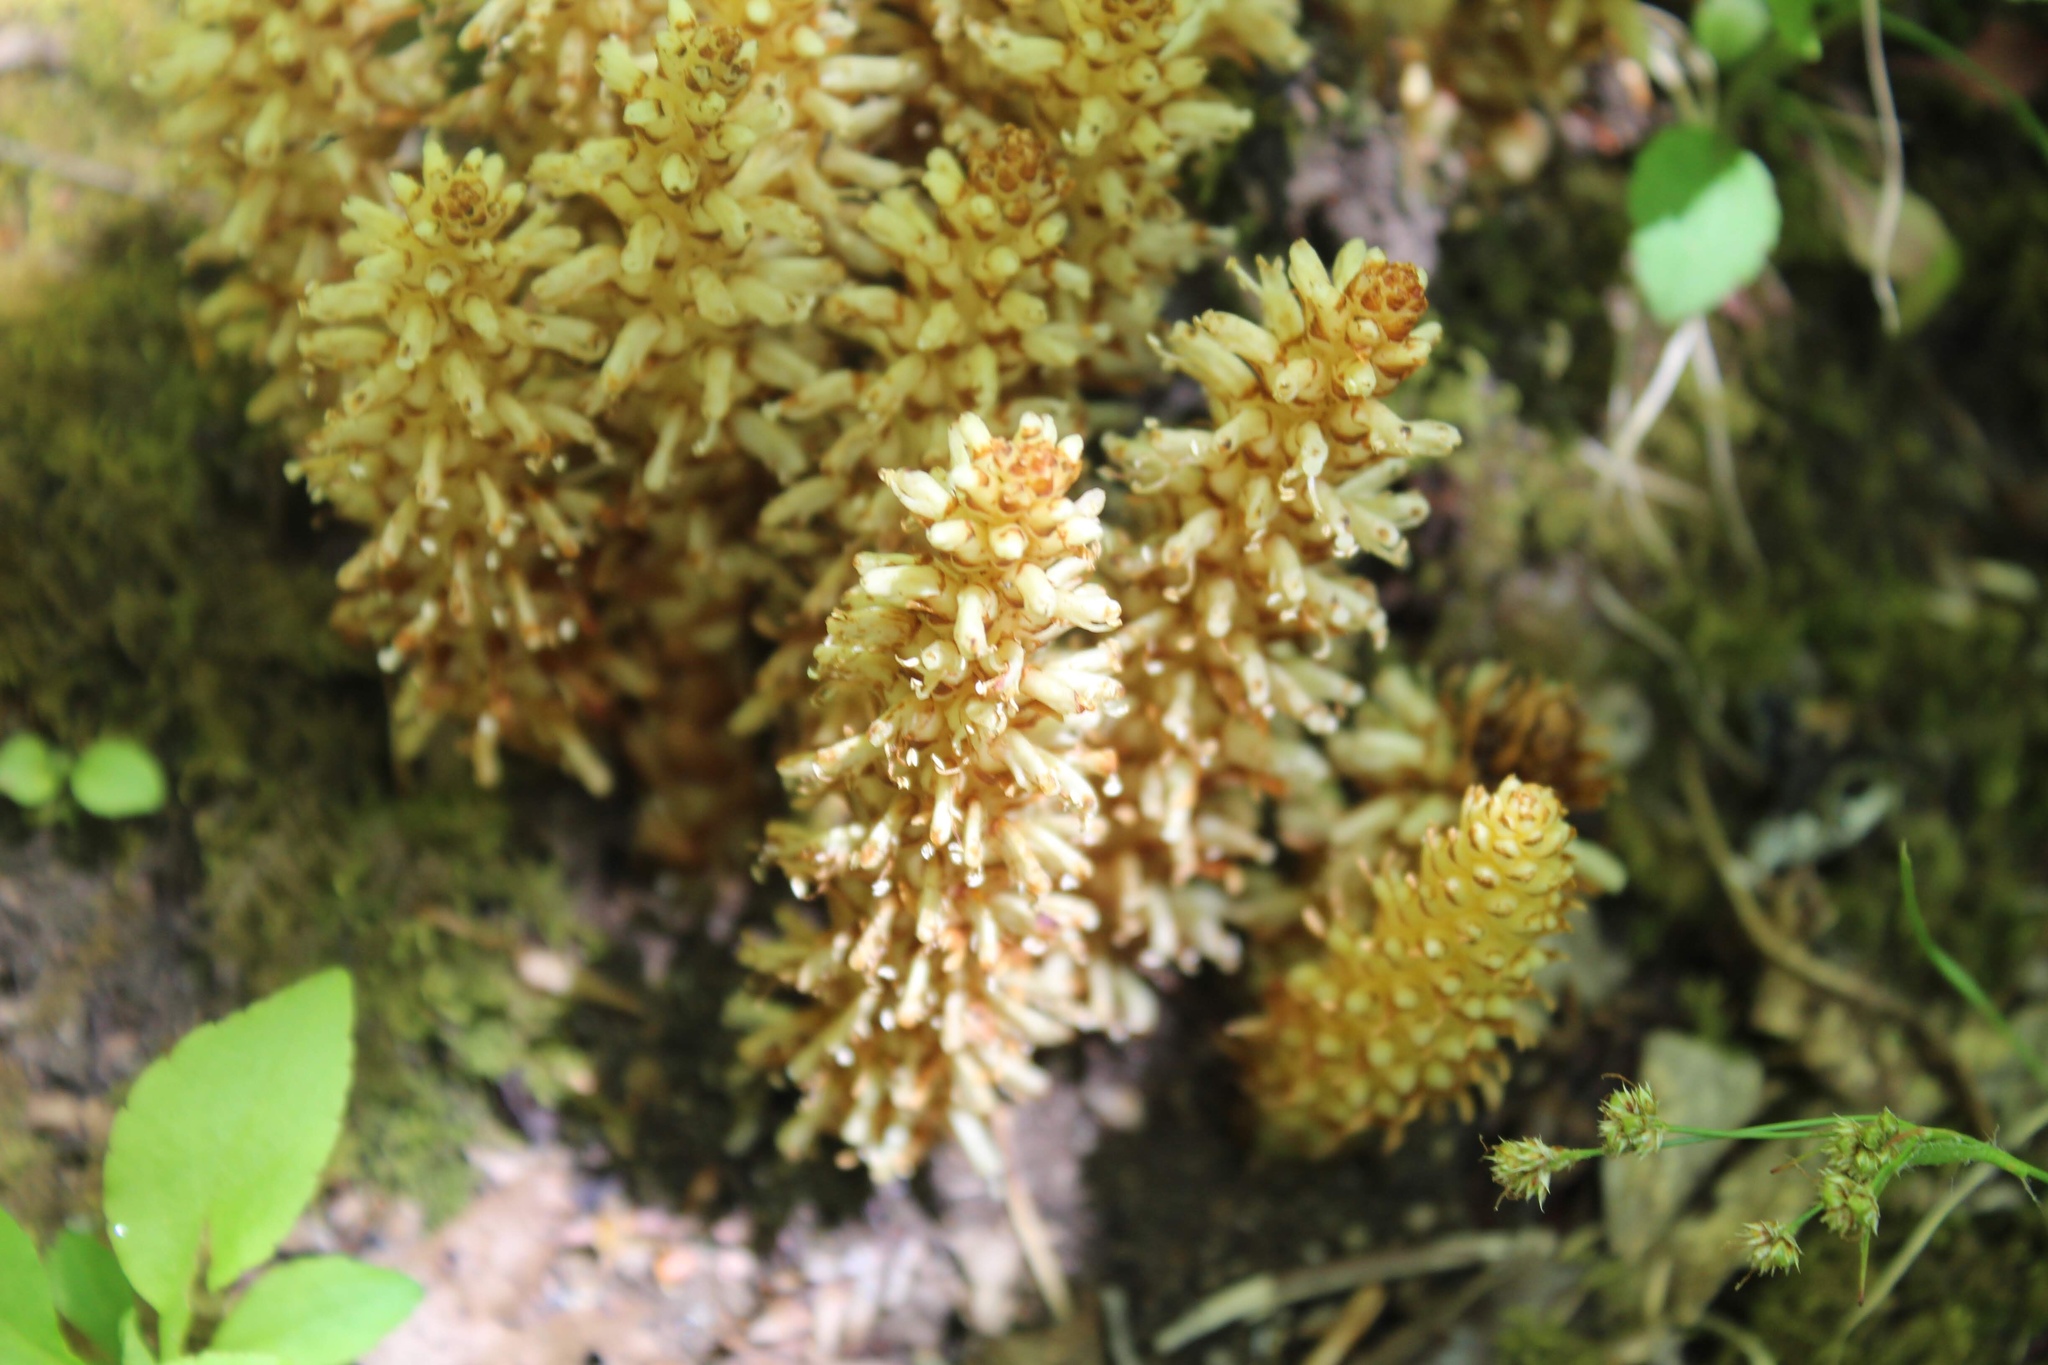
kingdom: Plantae
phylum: Tracheophyta
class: Magnoliopsida
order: Lamiales
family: Orobanchaceae
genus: Conopholis
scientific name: Conopholis americana
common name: American cancer-root
